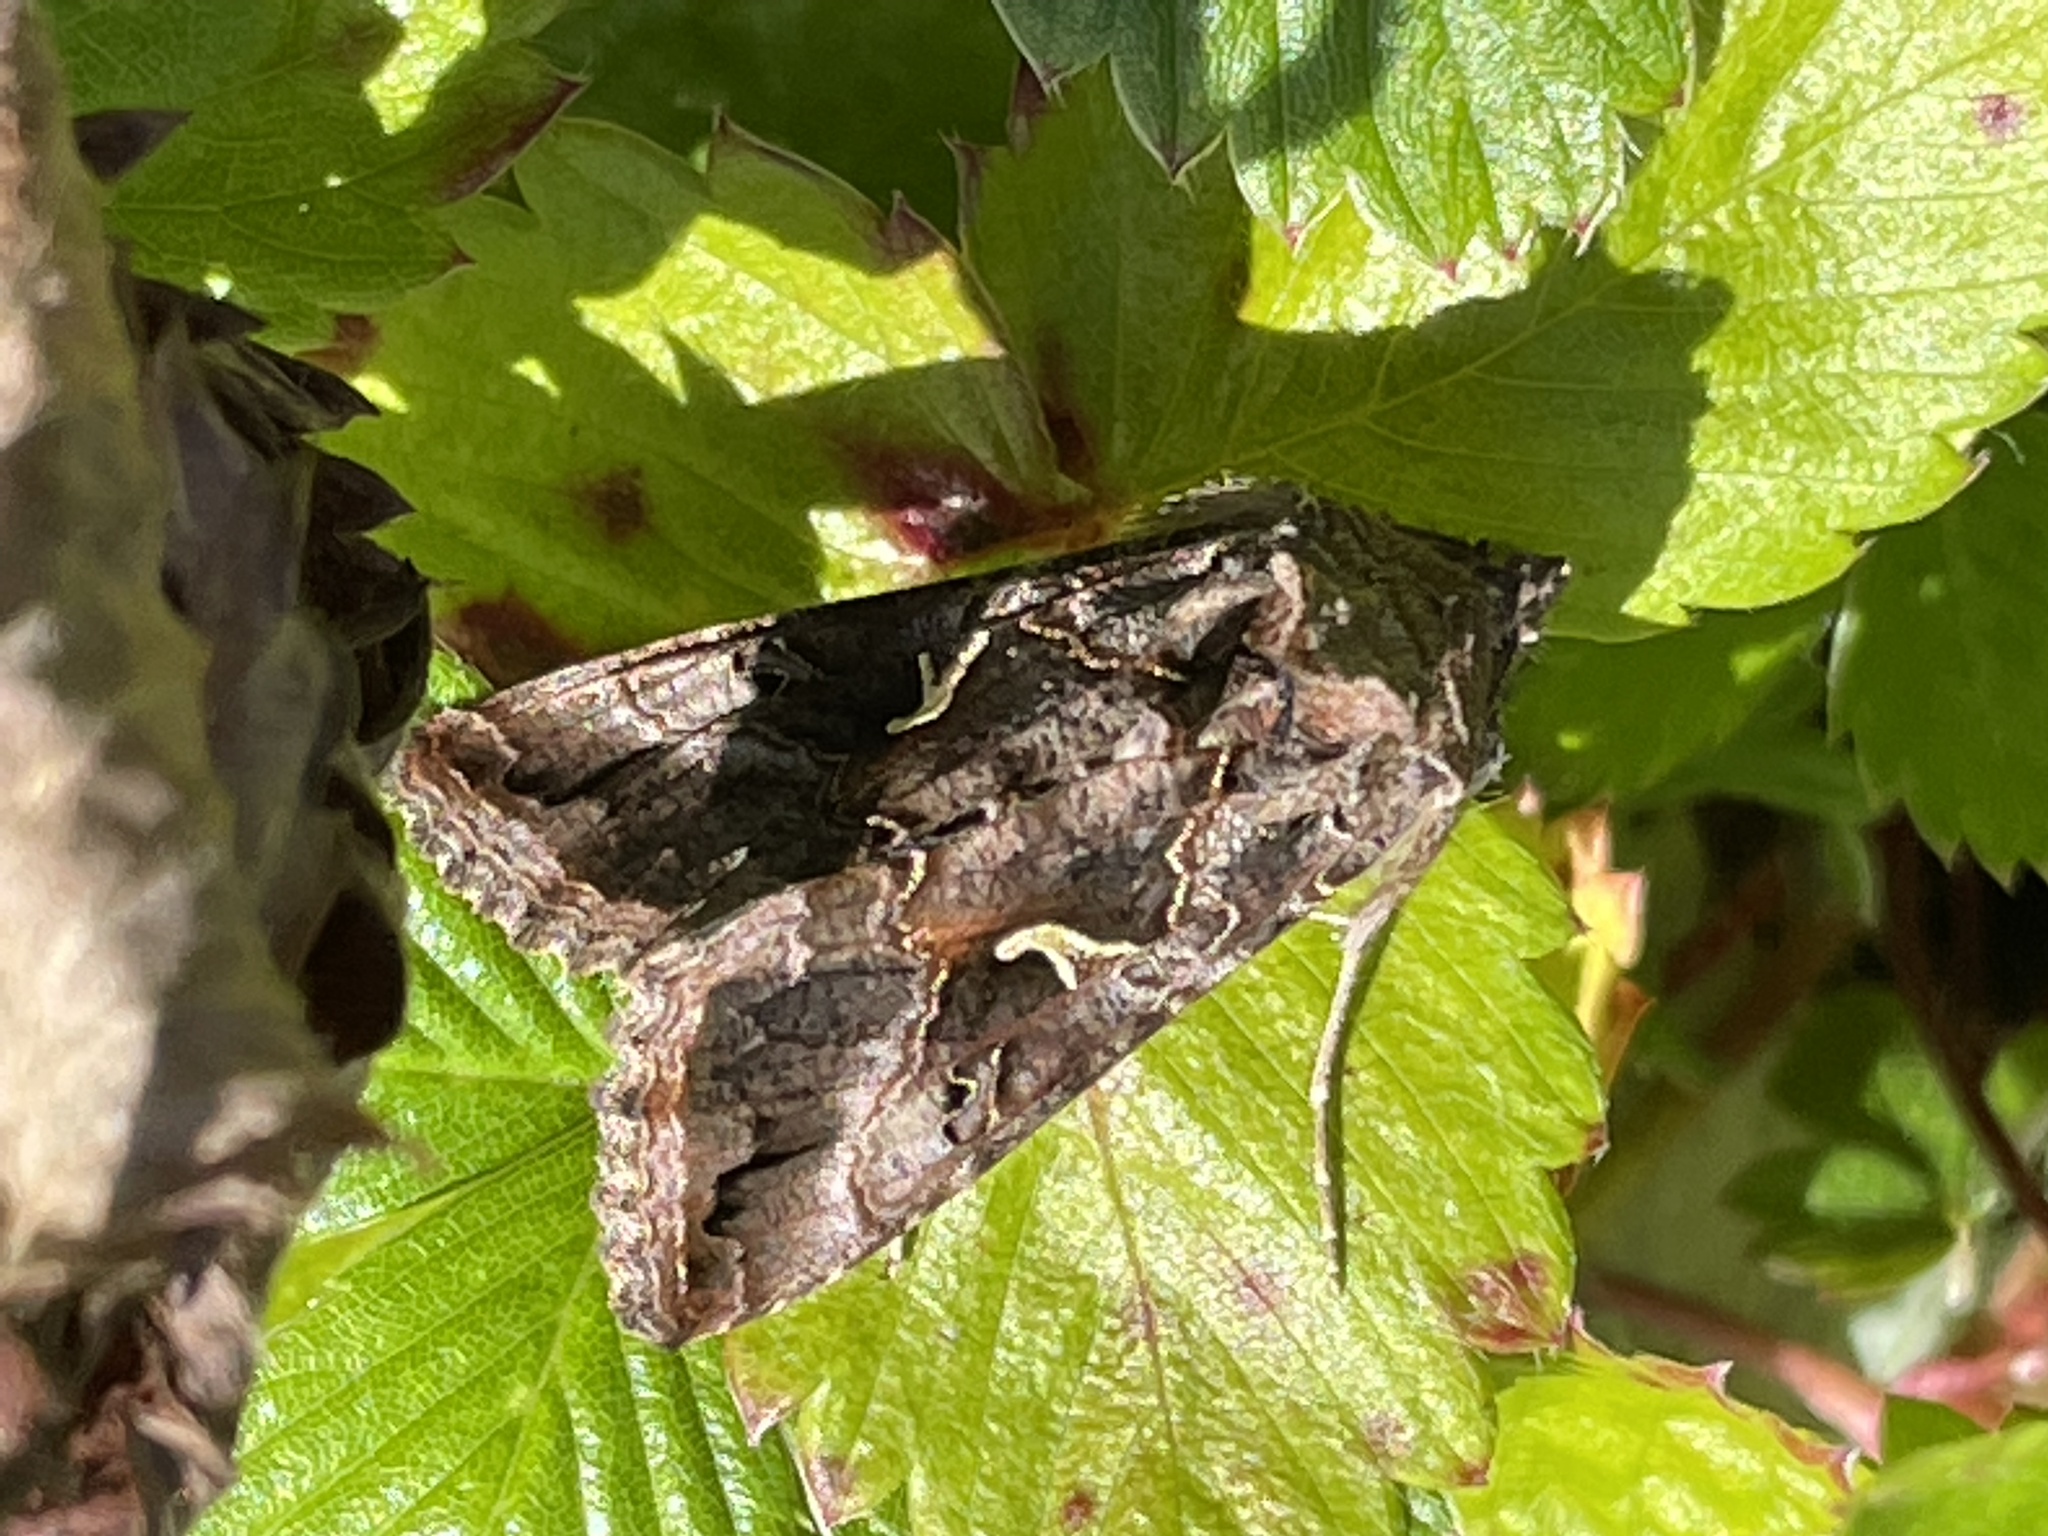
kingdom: Animalia
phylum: Arthropoda
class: Insecta
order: Lepidoptera
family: Noctuidae
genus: Autographa
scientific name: Autographa gamma
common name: Silver y
